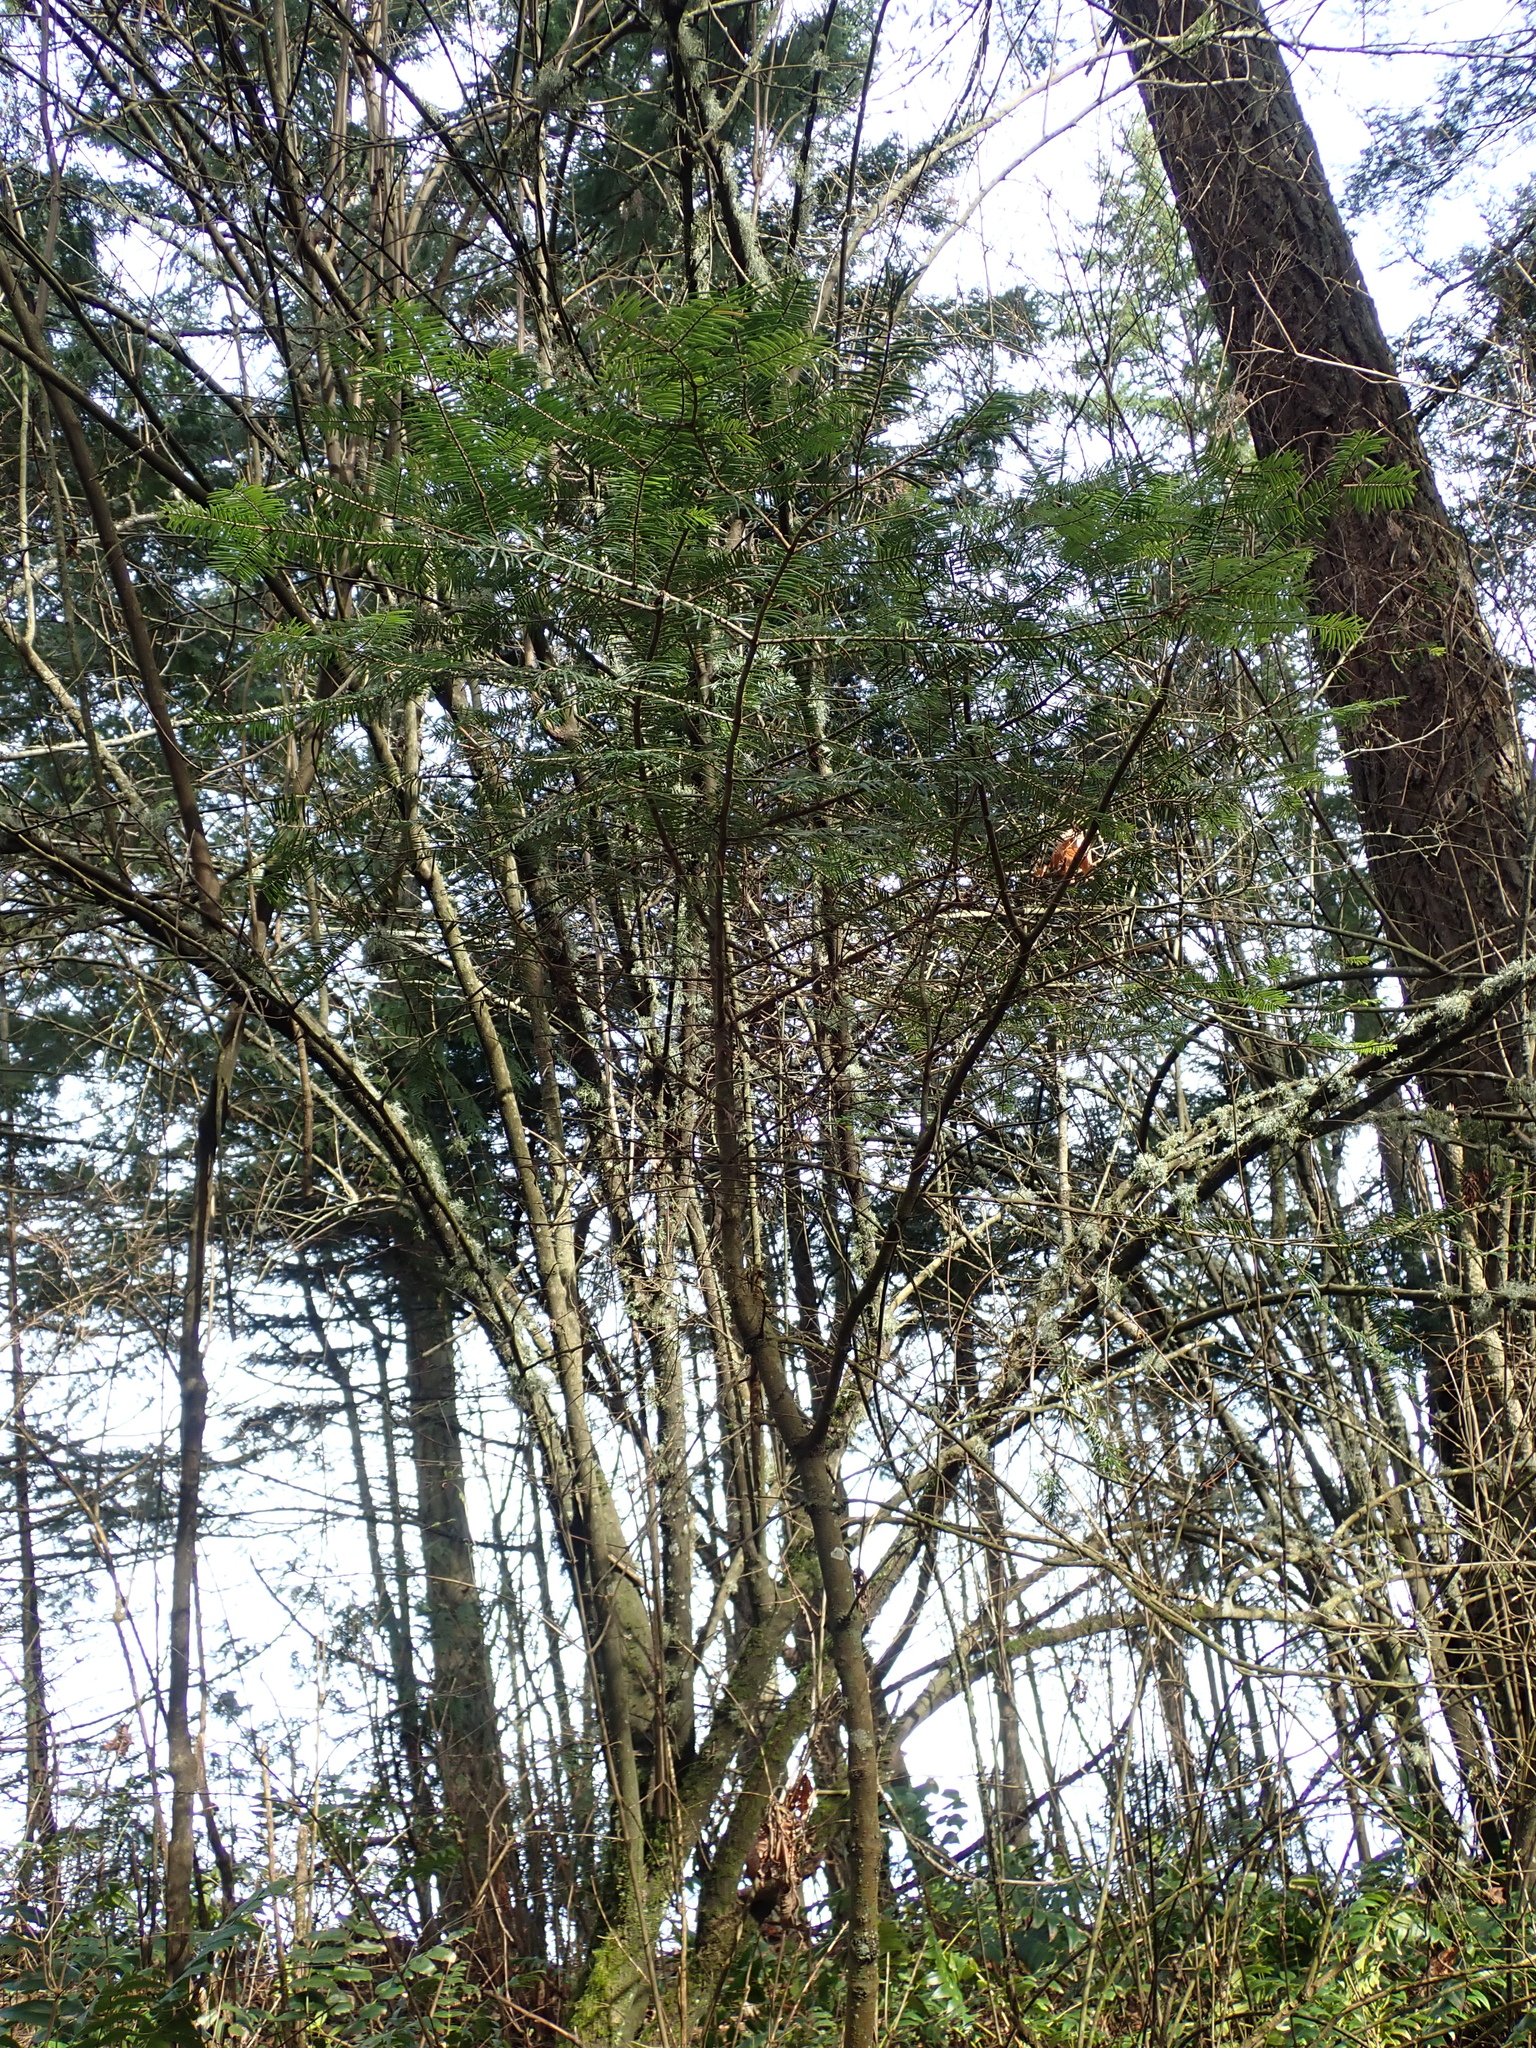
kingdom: Plantae
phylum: Tracheophyta
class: Pinopsida
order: Pinales
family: Pinaceae
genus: Abies
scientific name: Abies grandis
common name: Giant fir
